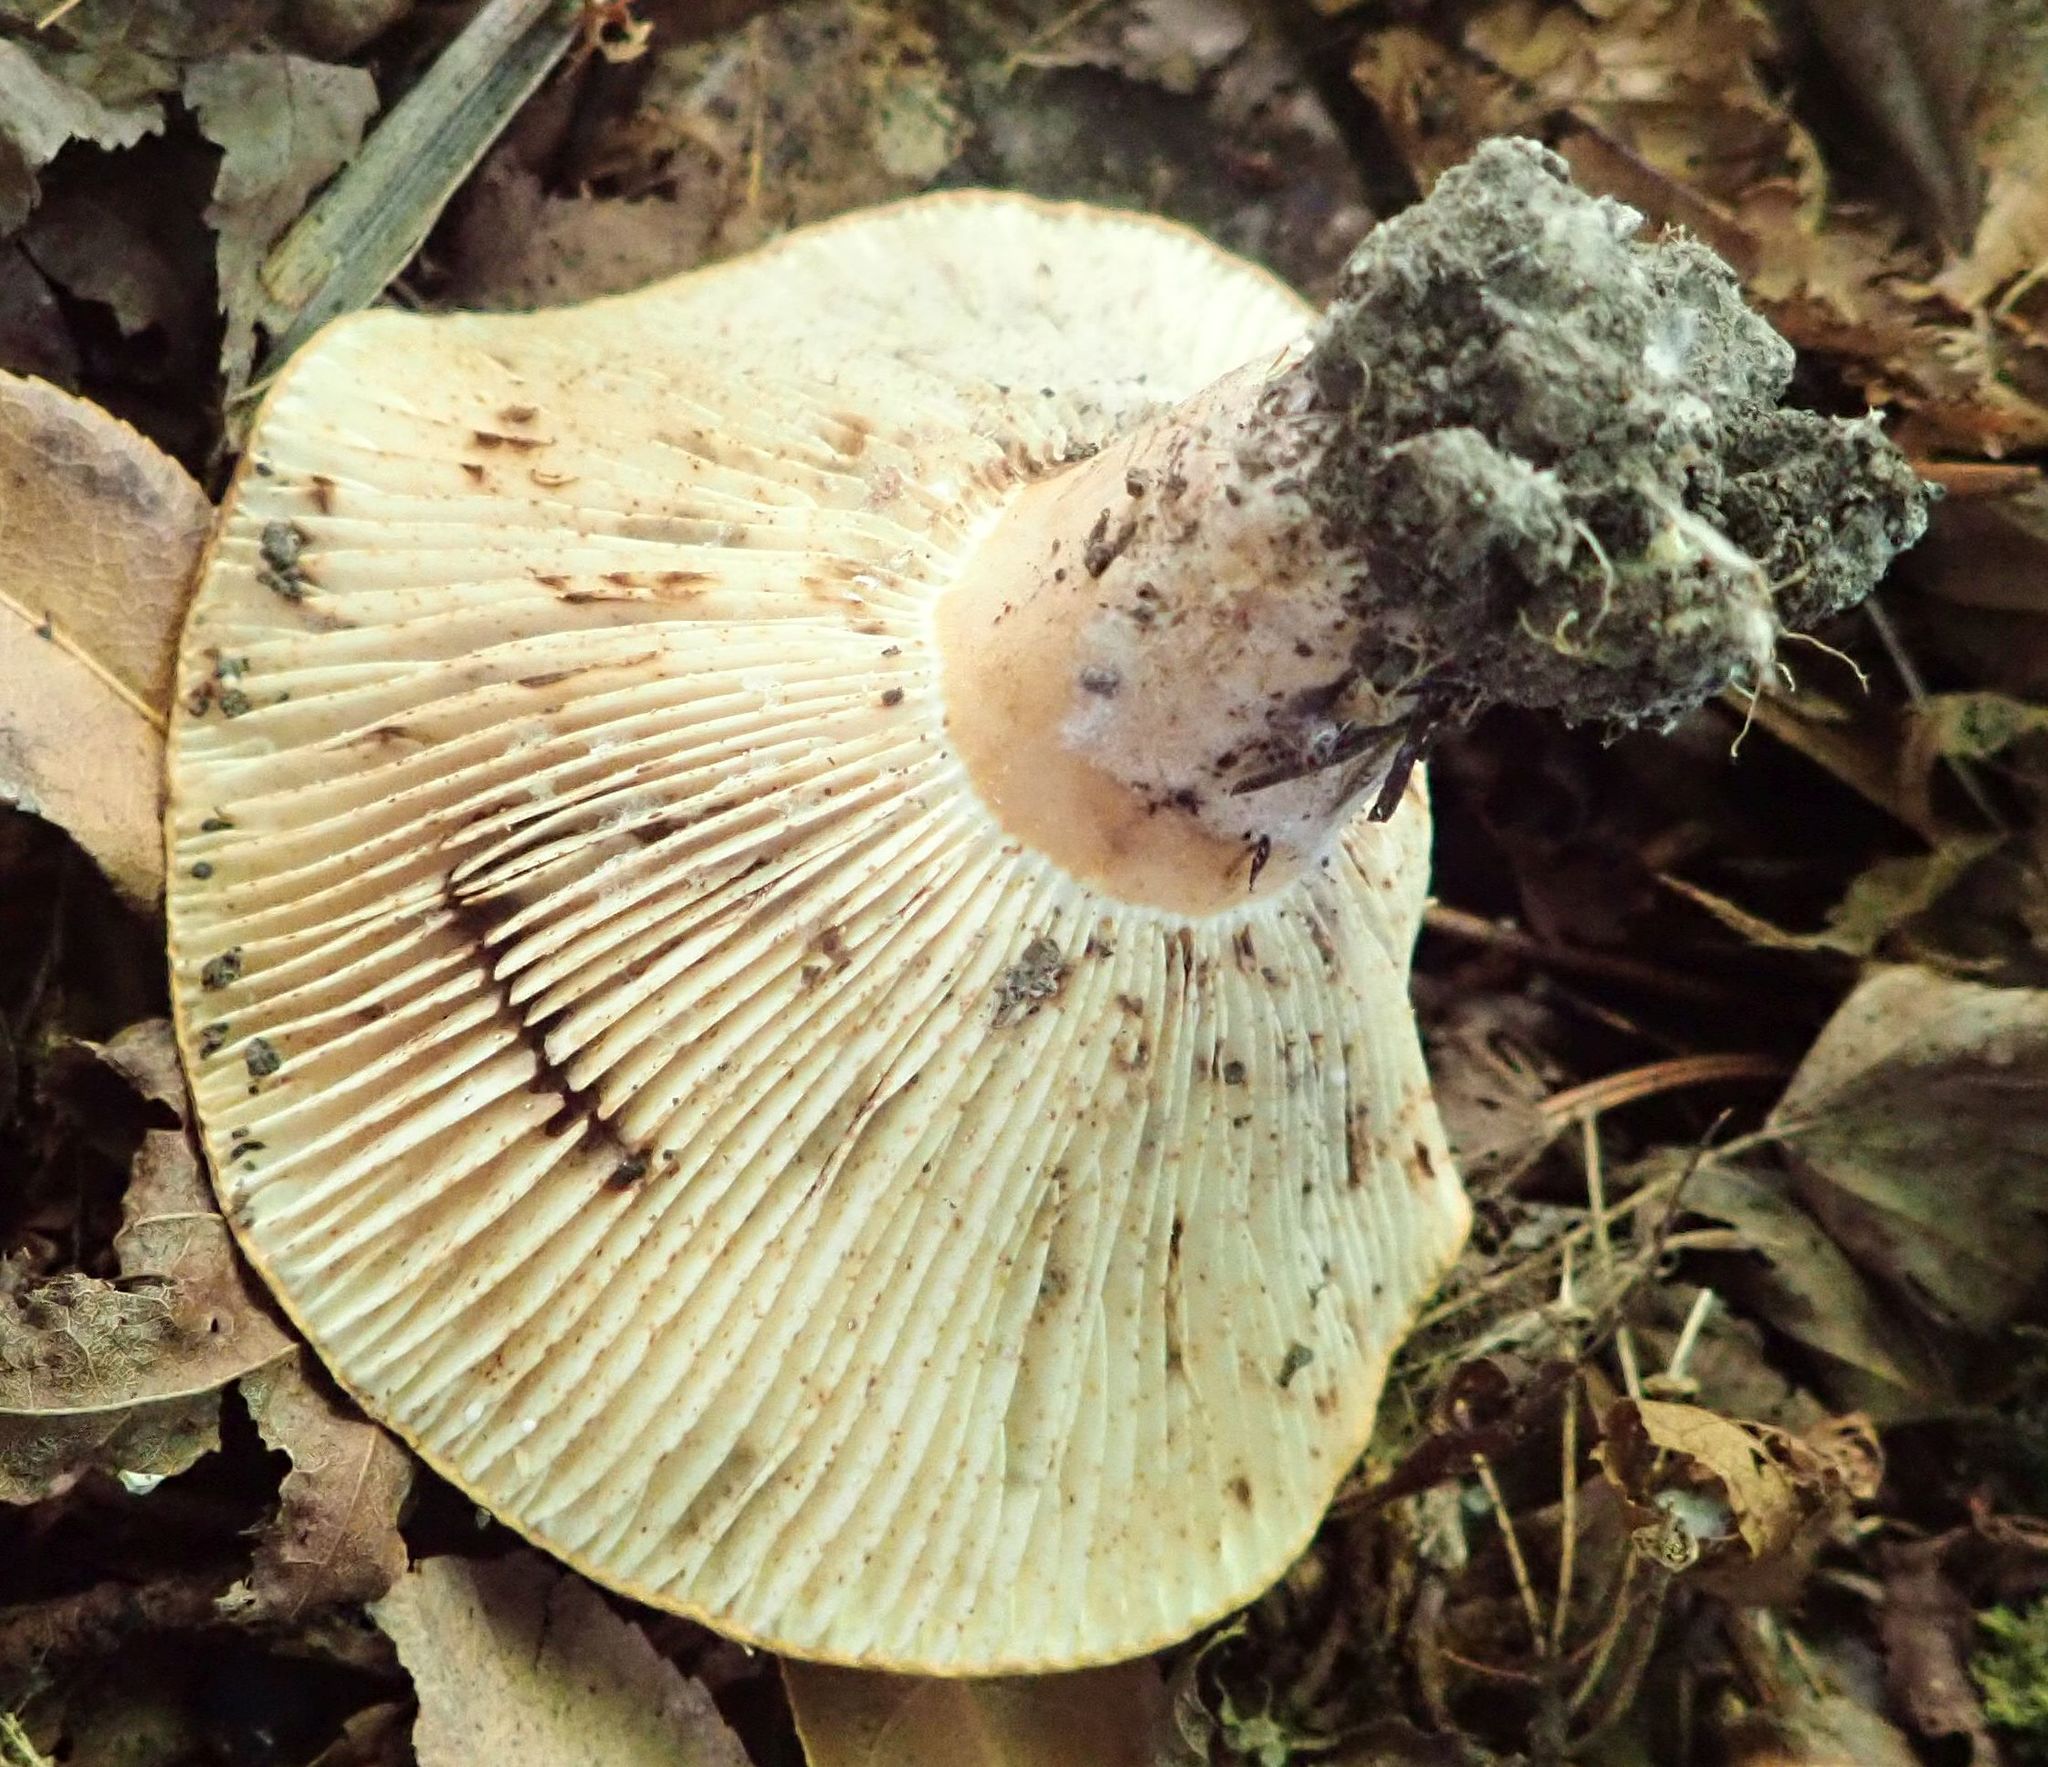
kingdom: Fungi
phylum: Basidiomycota
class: Agaricomycetes
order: Russulales
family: Russulaceae
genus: Lactifluus
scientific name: Lactifluus clarkeae
